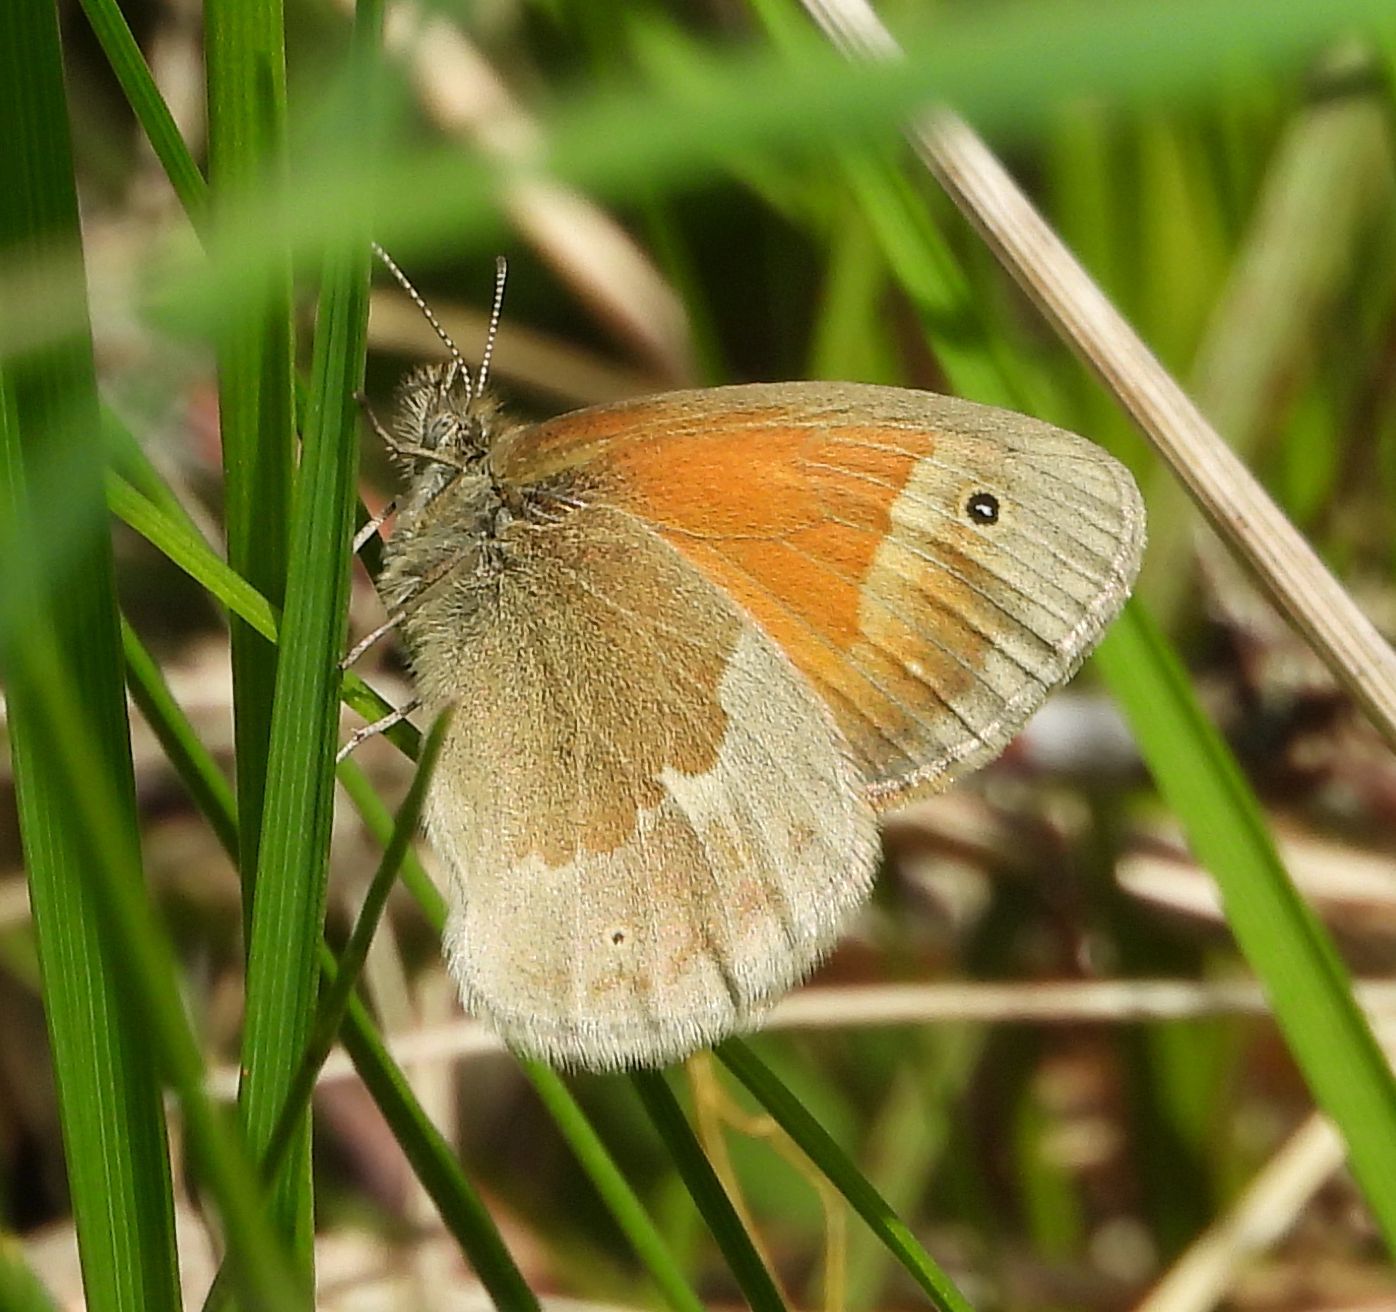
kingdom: Animalia
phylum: Arthropoda
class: Insecta
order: Lepidoptera
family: Nymphalidae
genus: Coenonympha
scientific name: Coenonympha california
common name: Common ringlet
